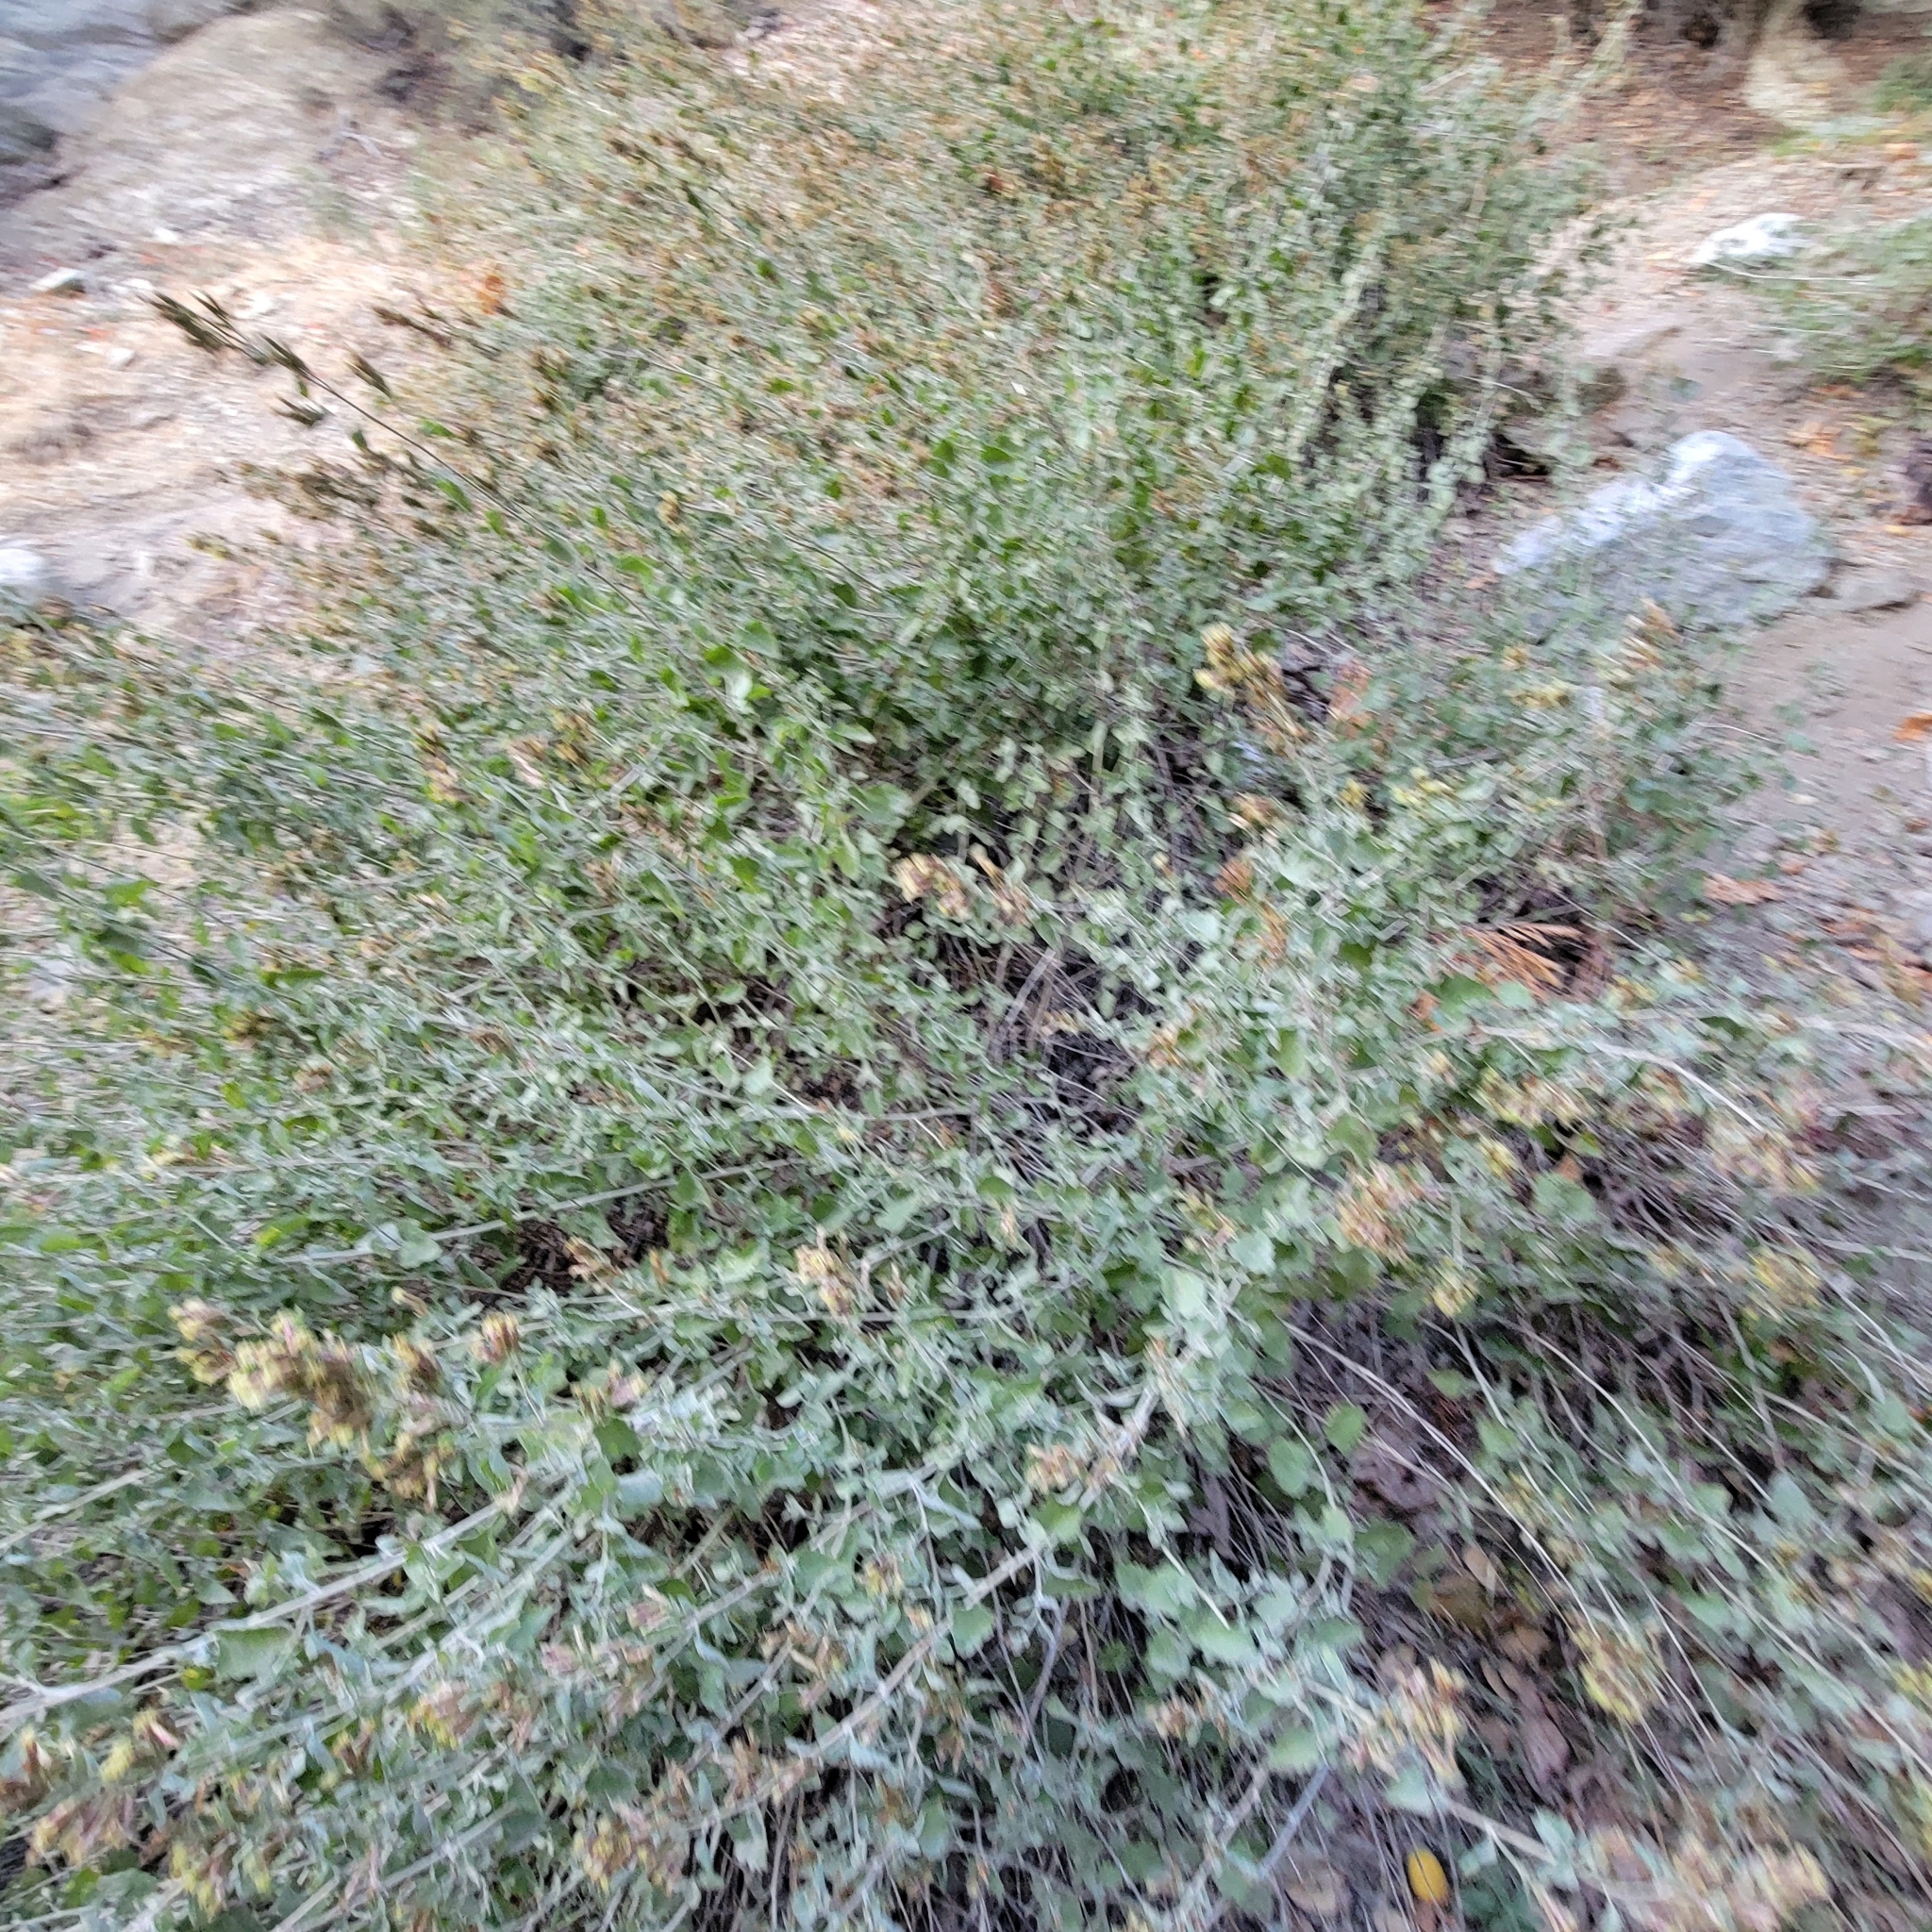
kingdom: Plantae
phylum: Tracheophyta
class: Magnoliopsida
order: Asterales
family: Asteraceae
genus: Brickellia
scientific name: Brickellia californica
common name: California brickellbush
